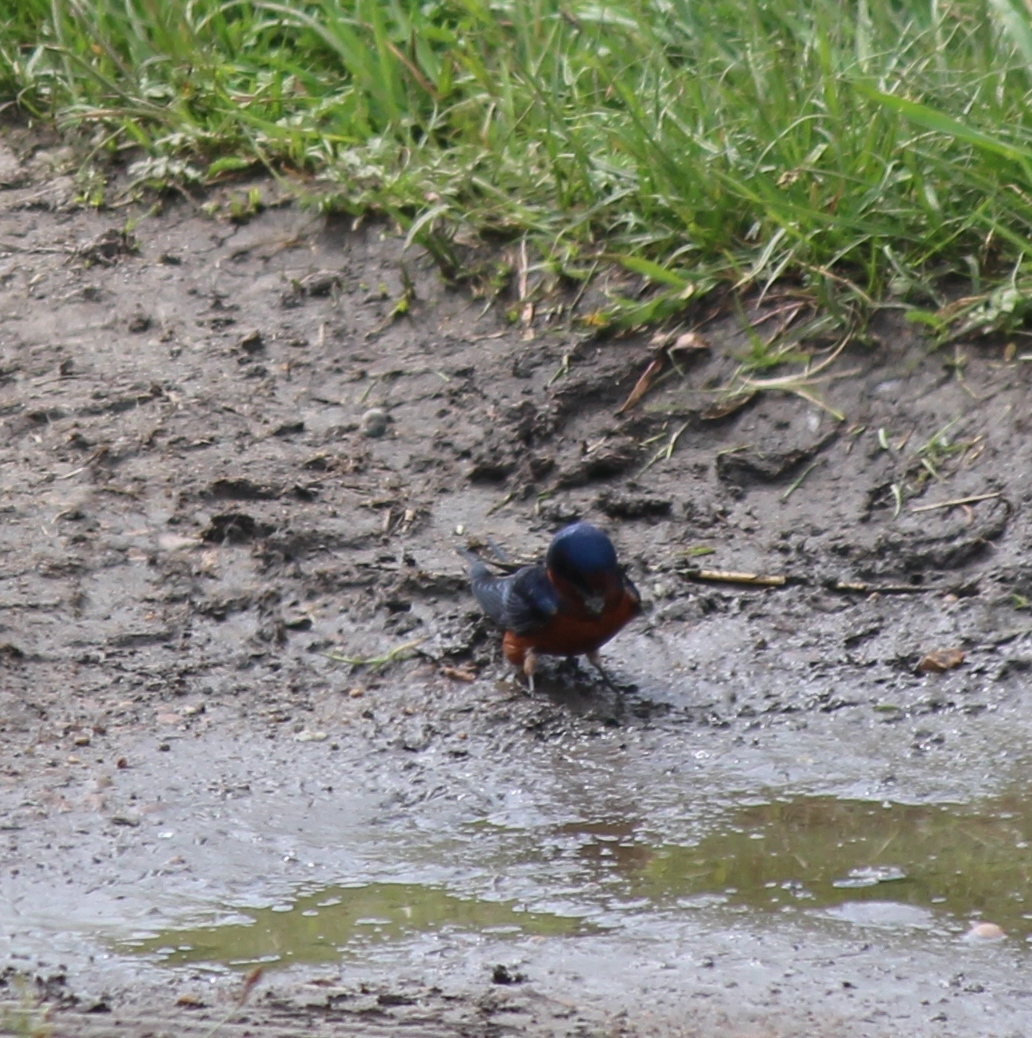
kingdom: Animalia
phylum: Chordata
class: Aves
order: Passeriformes
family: Hirundinidae
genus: Hirundo
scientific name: Hirundo rustica
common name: Barn swallow
